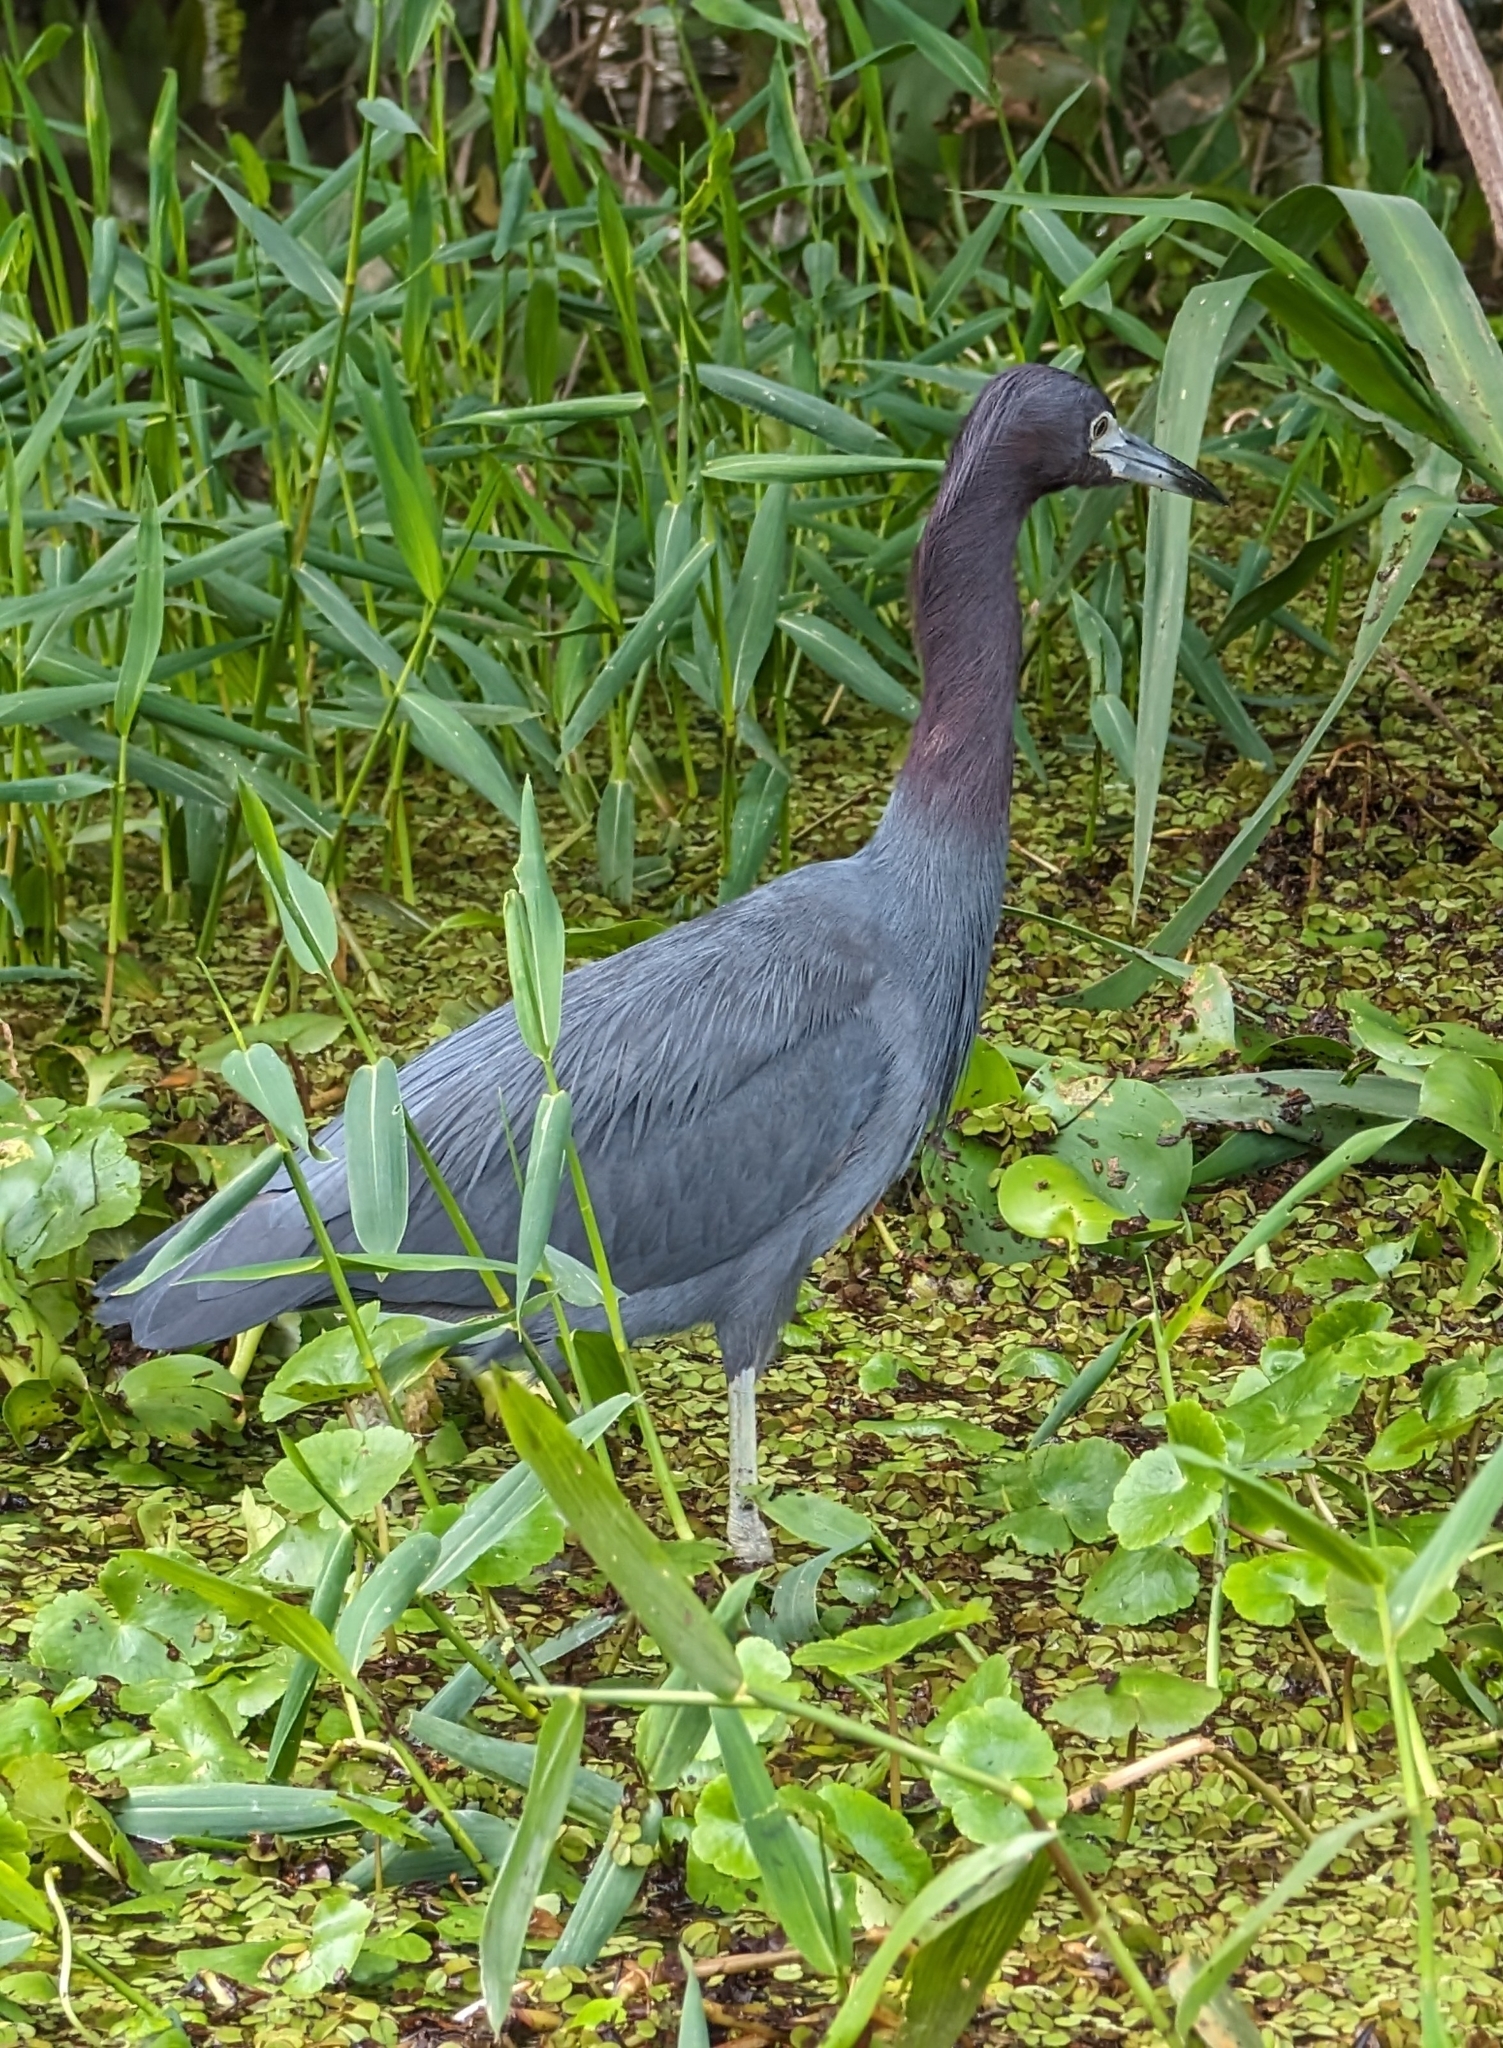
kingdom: Animalia
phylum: Chordata
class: Aves
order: Pelecaniformes
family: Ardeidae
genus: Egretta
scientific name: Egretta caerulea
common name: Little blue heron
